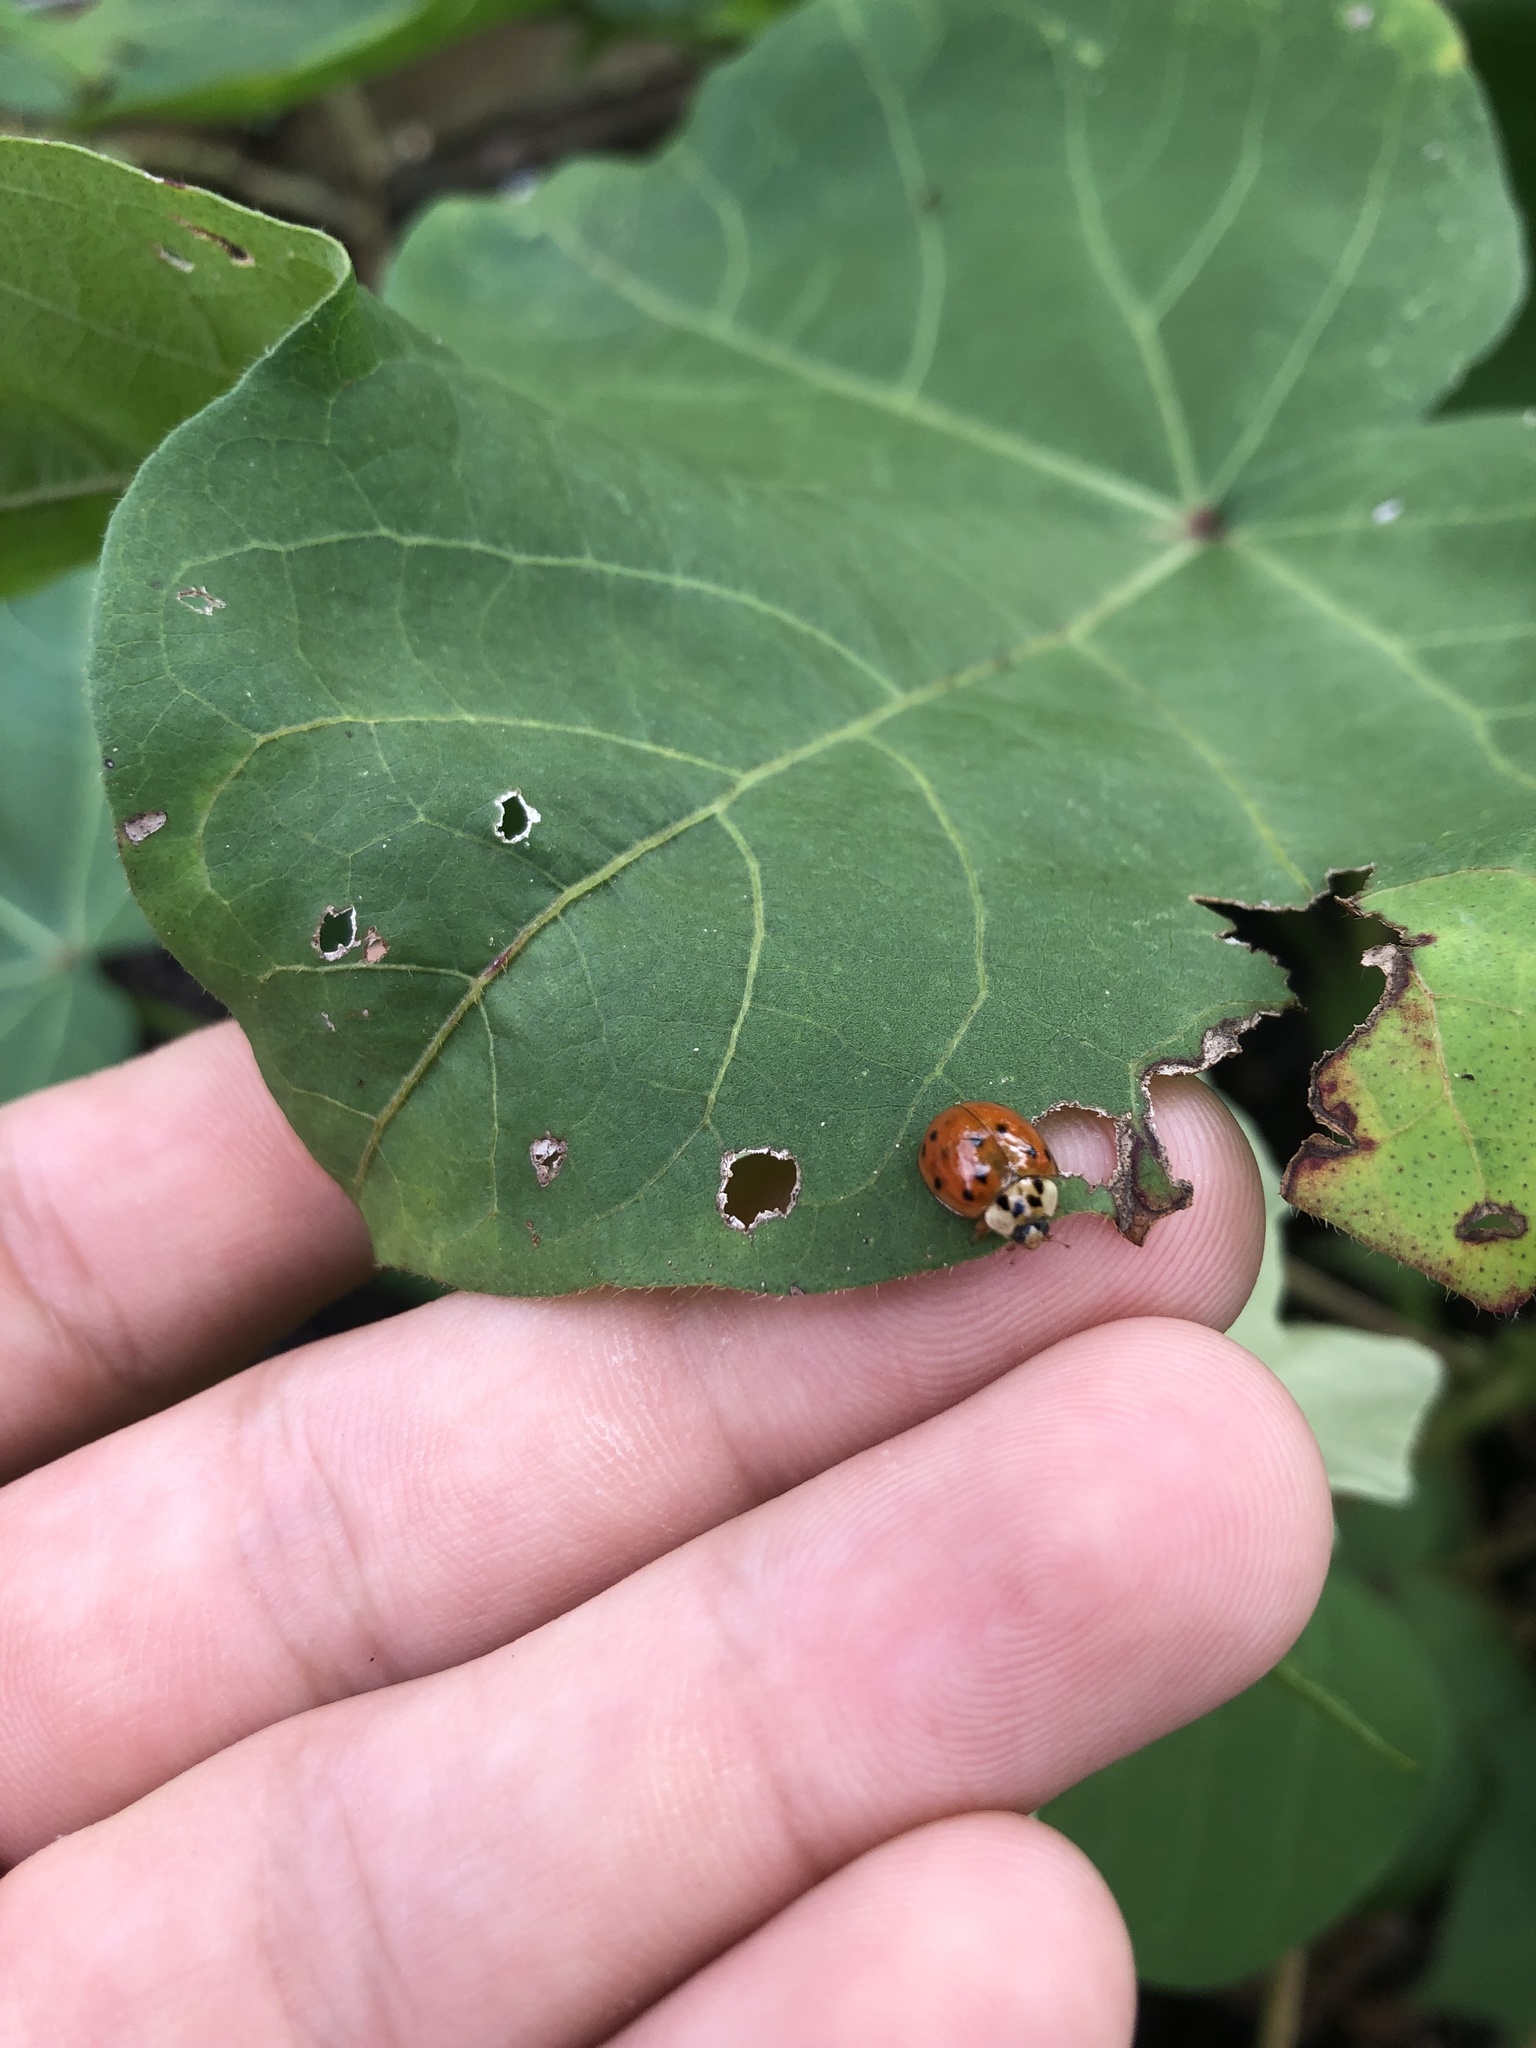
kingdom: Animalia
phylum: Arthropoda
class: Insecta
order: Coleoptera
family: Coccinellidae
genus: Harmonia
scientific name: Harmonia axyridis
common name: Harlequin ladybird
